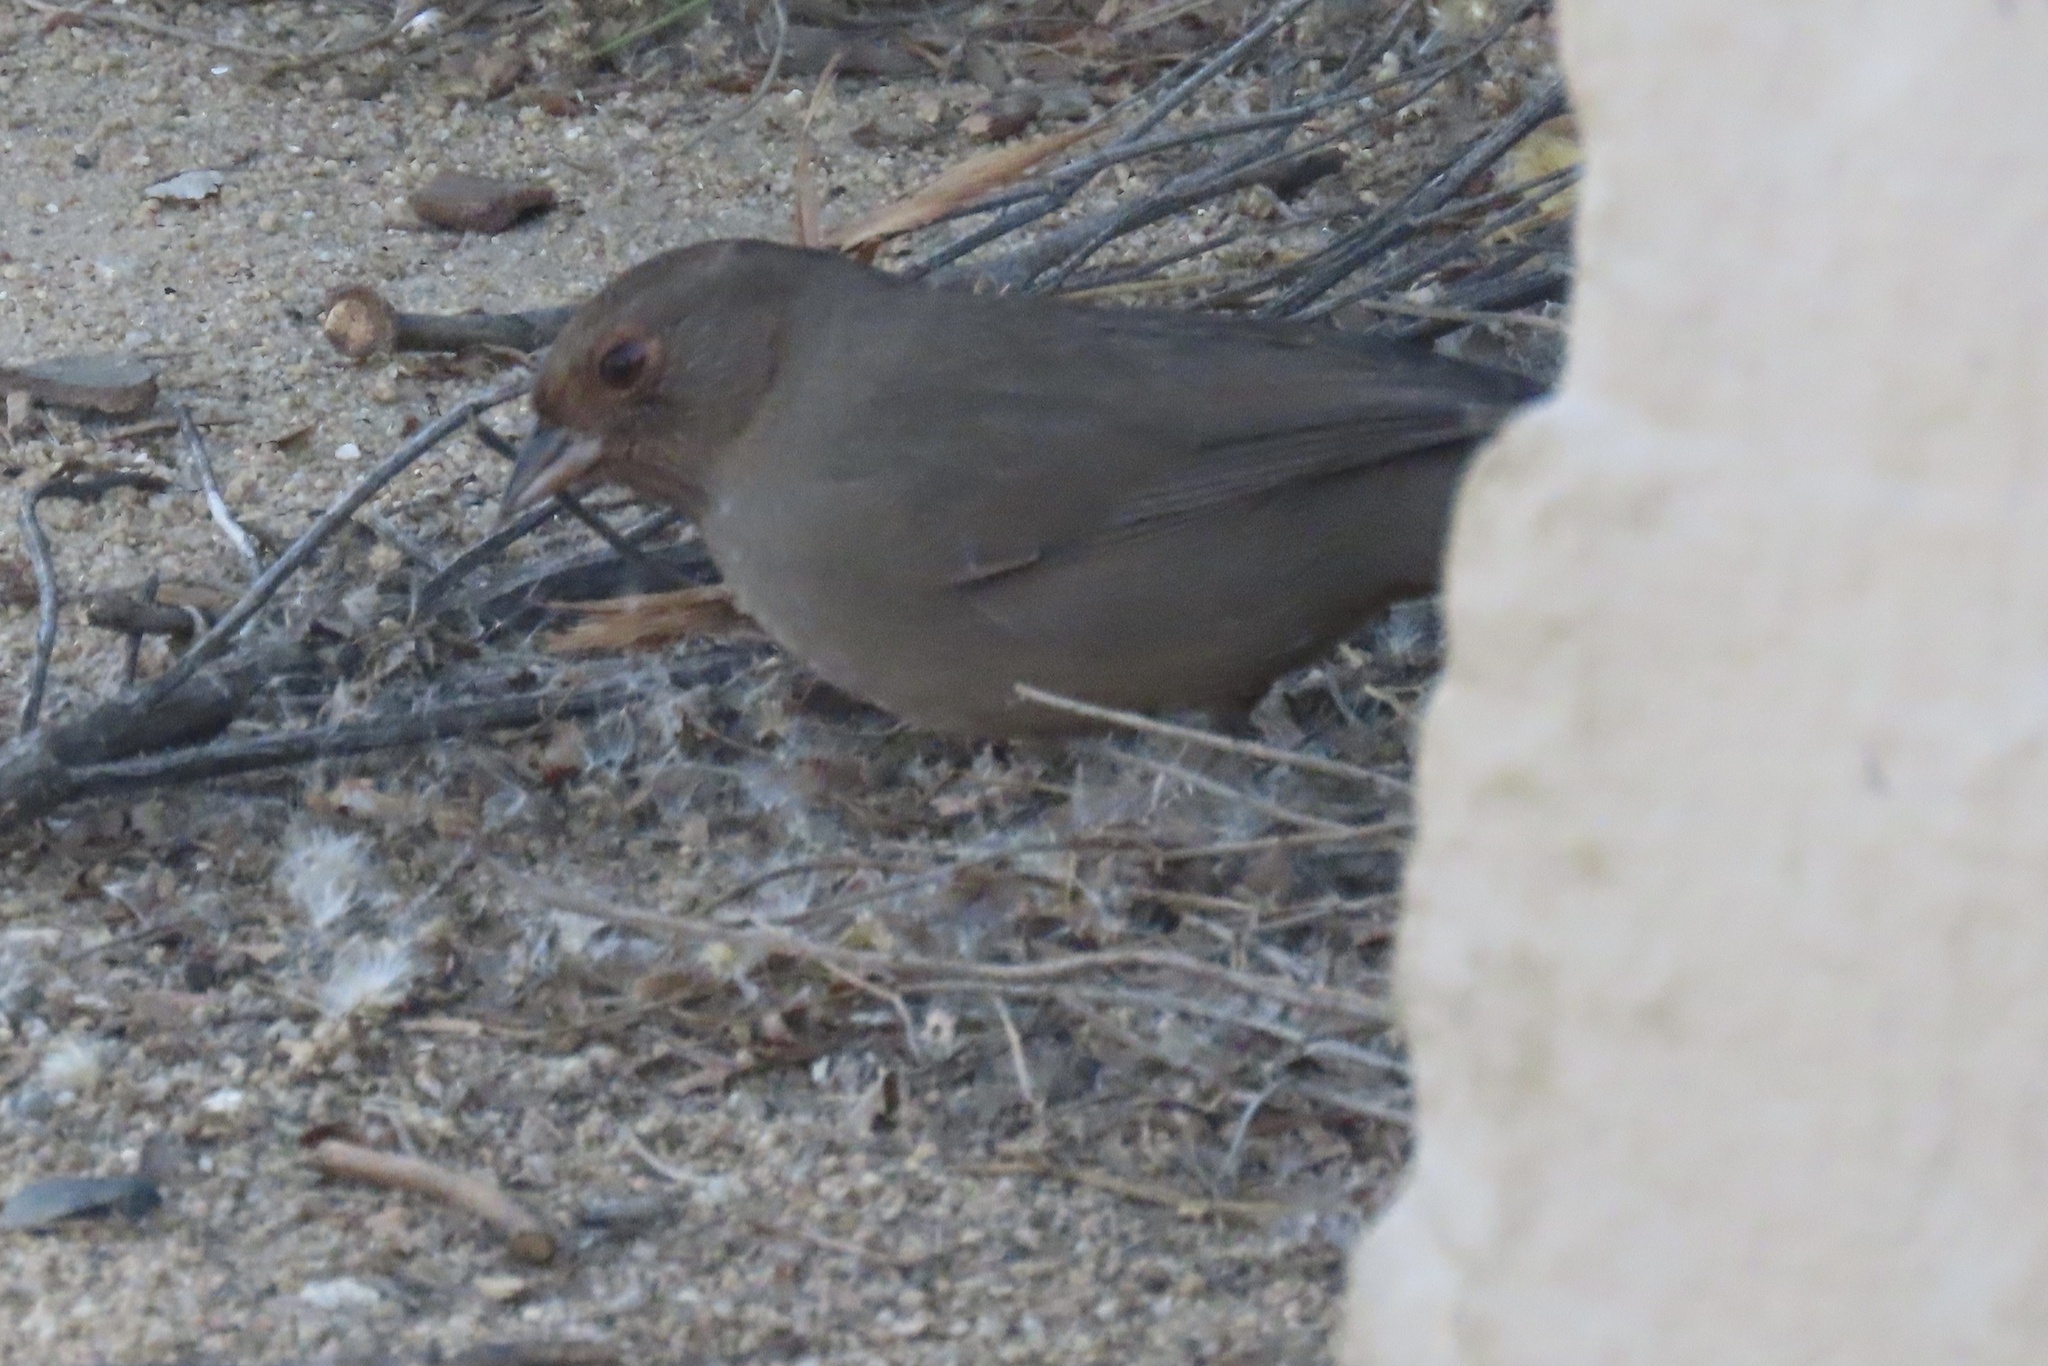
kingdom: Animalia
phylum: Chordata
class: Aves
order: Passeriformes
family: Passerellidae
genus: Melozone
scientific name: Melozone crissalis
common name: California towhee
